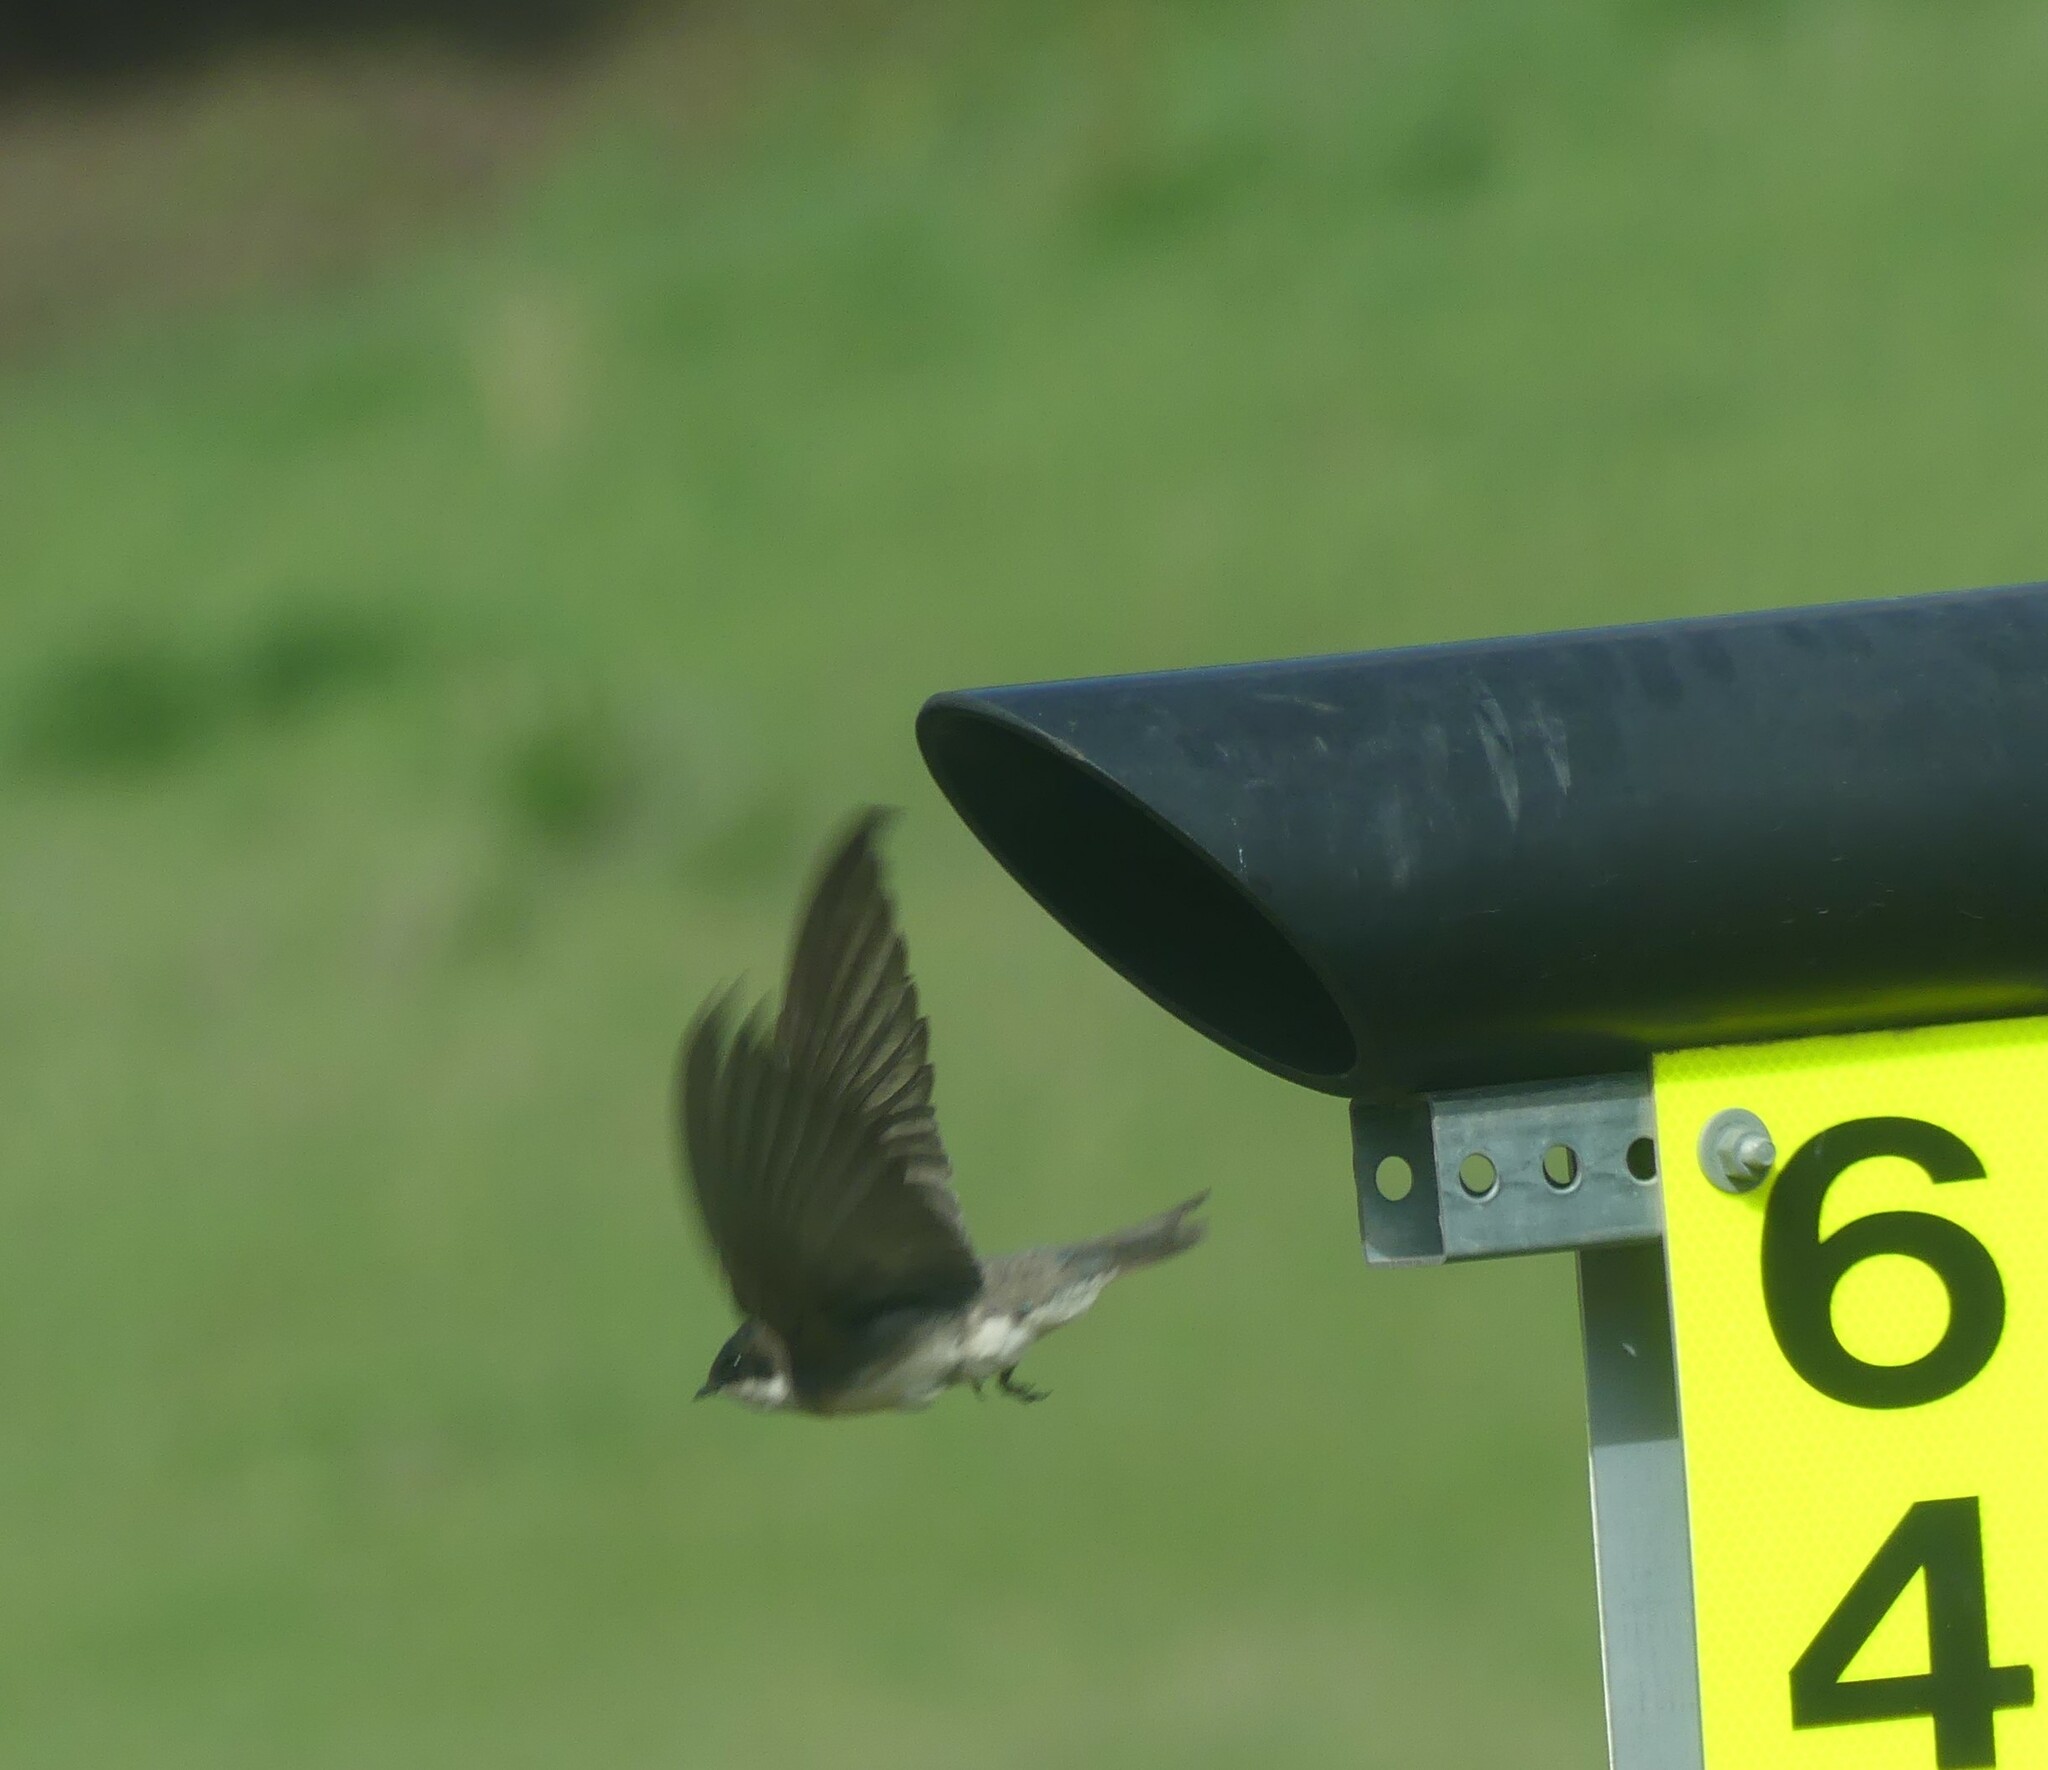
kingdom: Animalia
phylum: Chordata
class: Aves
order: Passeriformes
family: Hirundinidae
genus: Tachycineta
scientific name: Tachycineta bicolor
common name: Tree swallow
